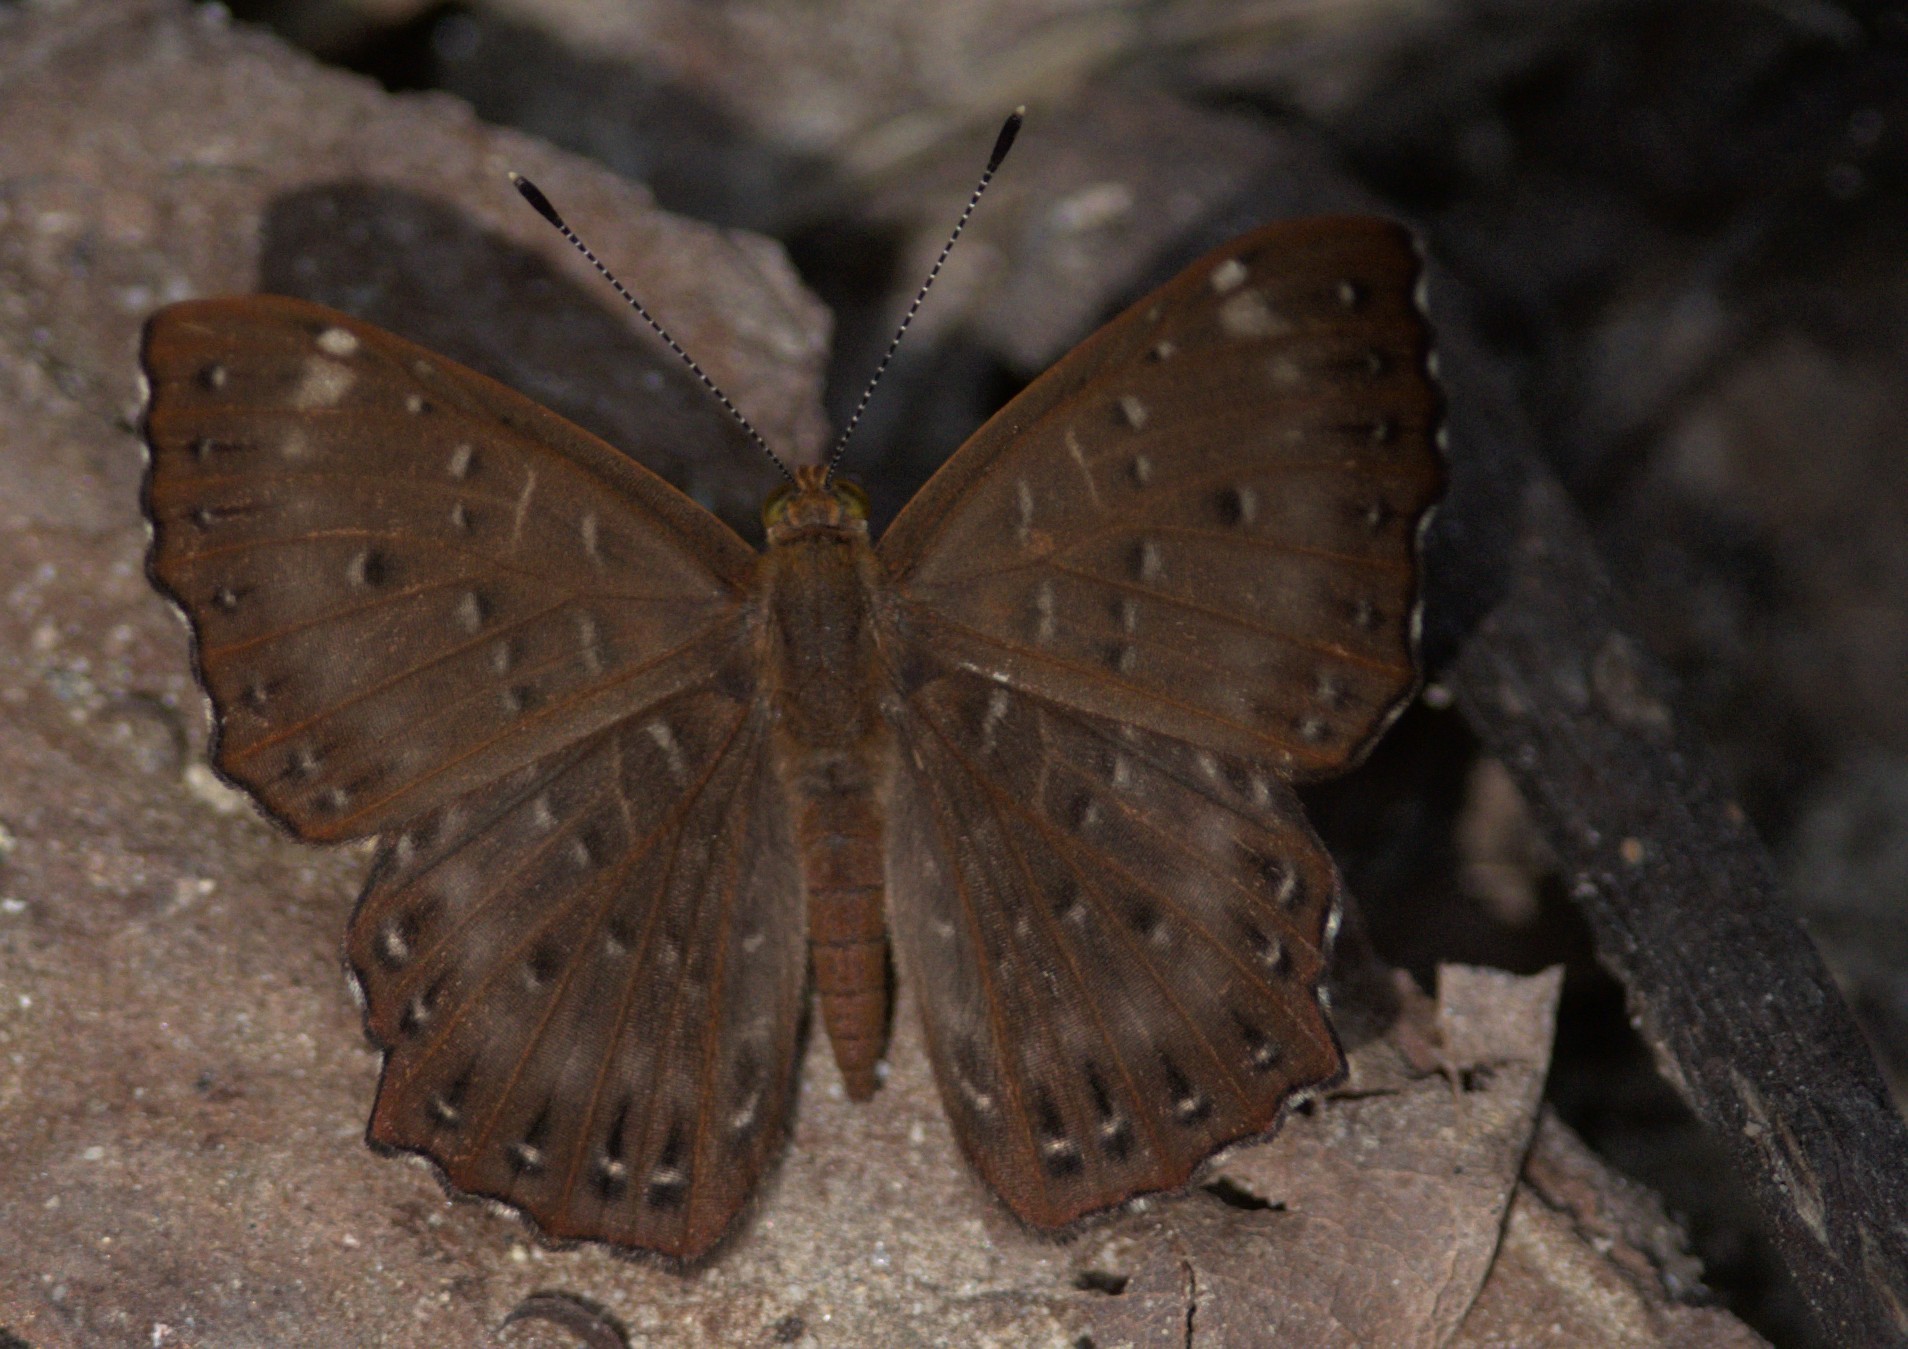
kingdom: Animalia
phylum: Arthropoda
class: Insecta
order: Lepidoptera
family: Riodinidae
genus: Zemeros
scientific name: Zemeros flegyas
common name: Punchinello
